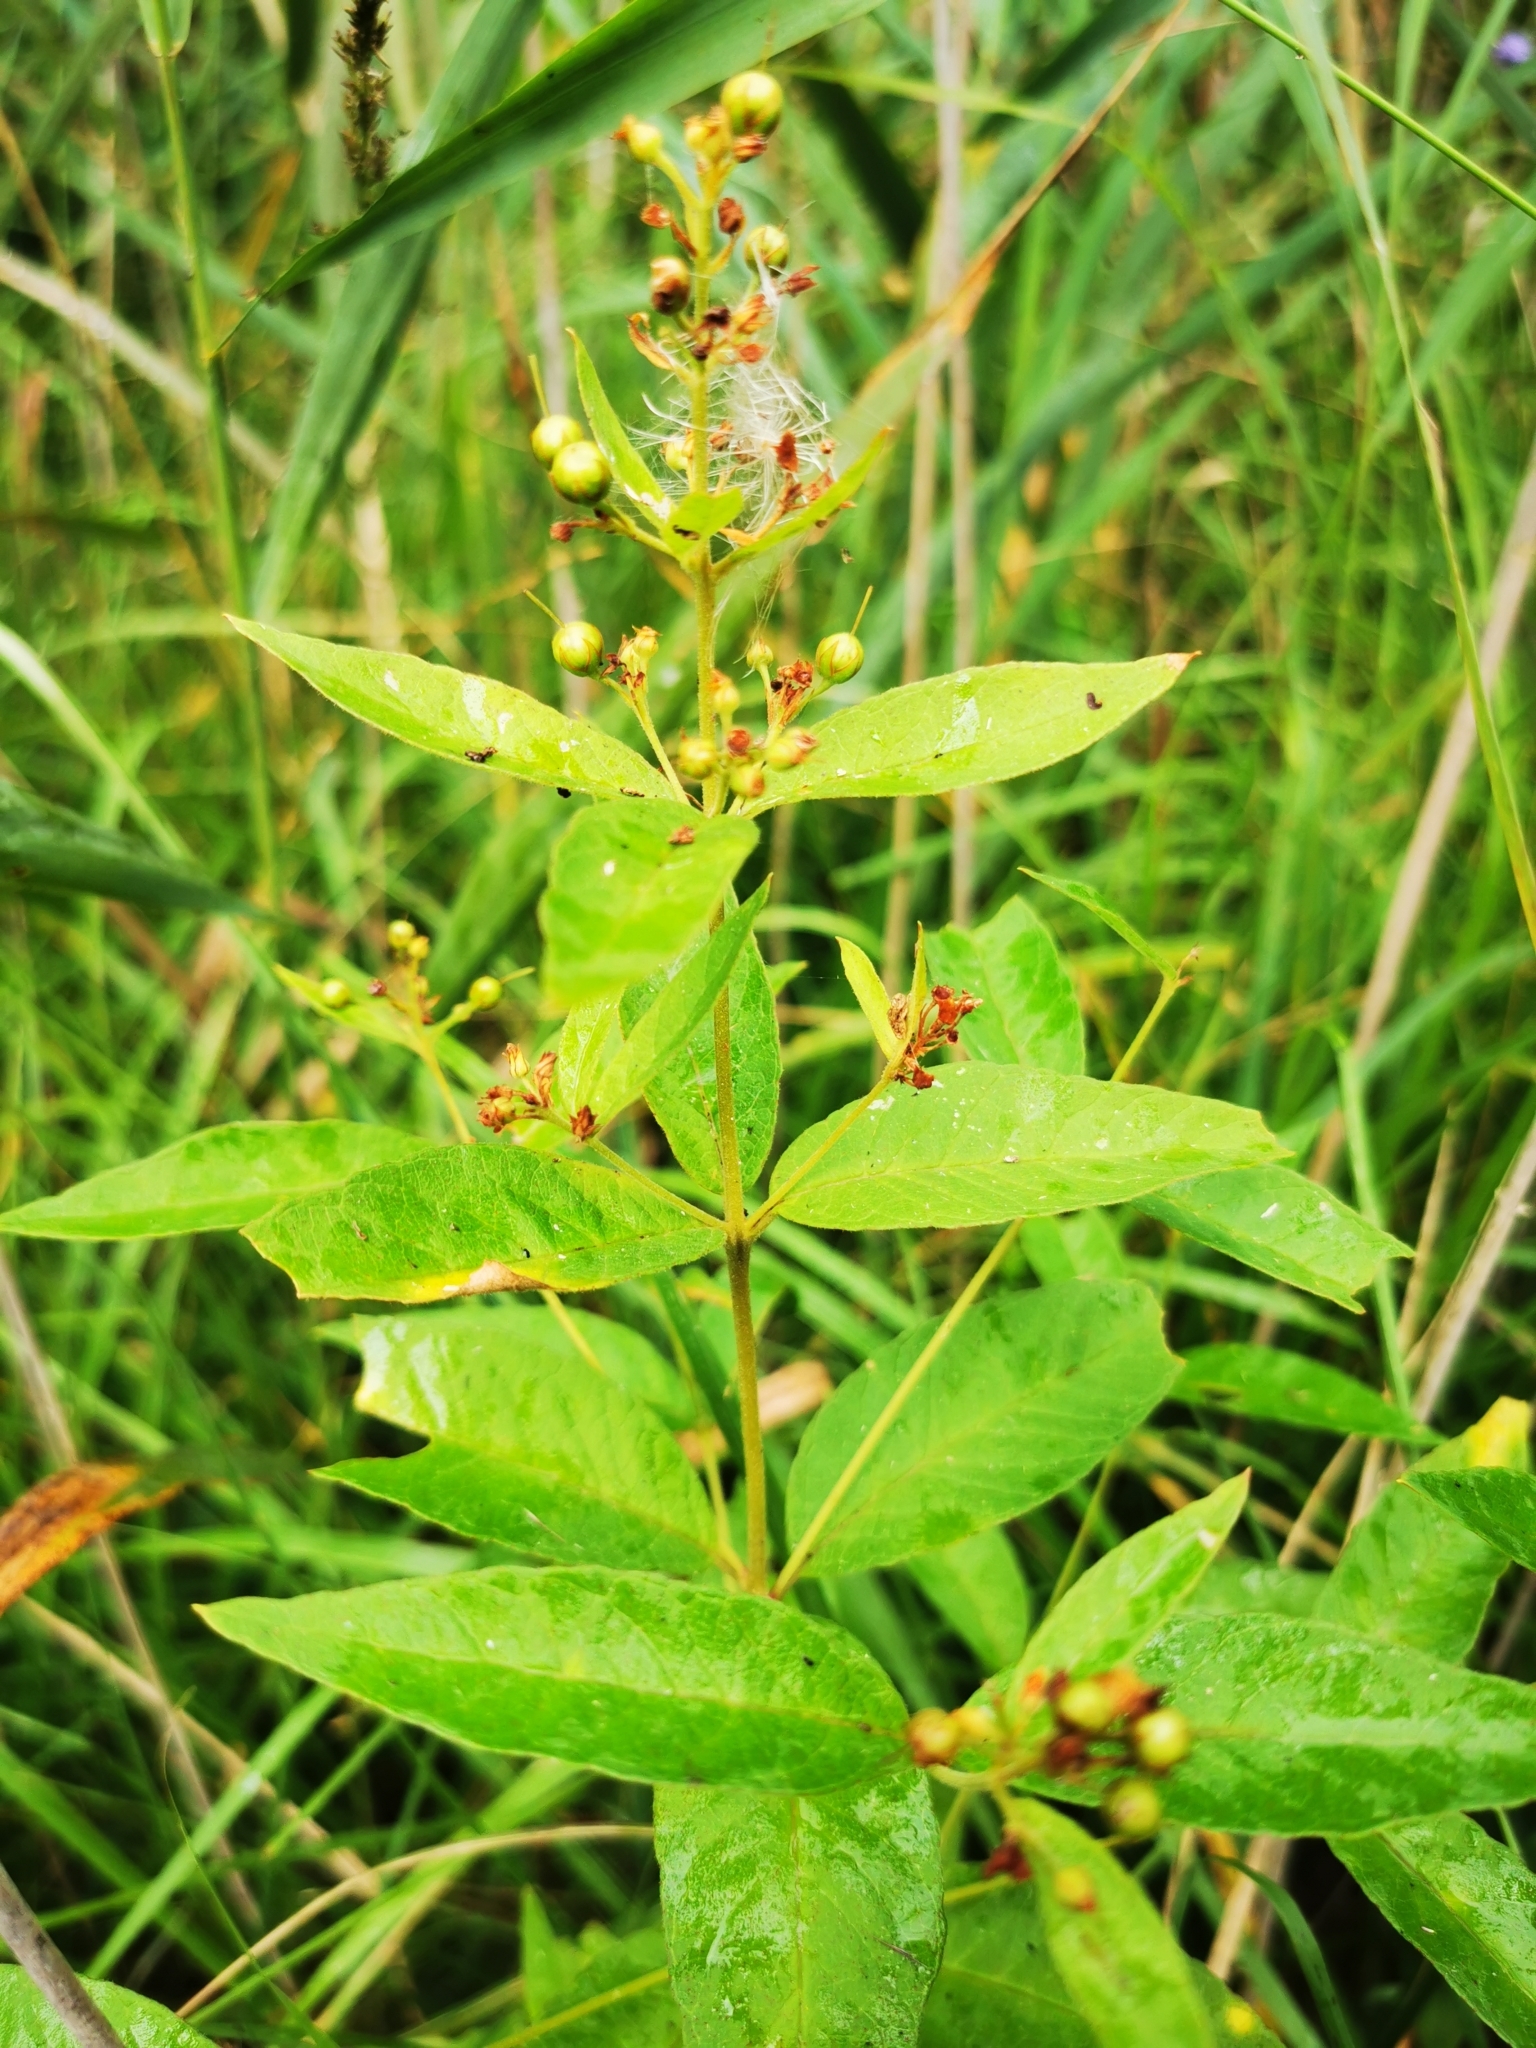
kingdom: Plantae
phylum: Tracheophyta
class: Magnoliopsida
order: Ericales
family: Primulaceae
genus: Lysimachia
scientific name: Lysimachia vulgaris
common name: Yellow loosestrife
